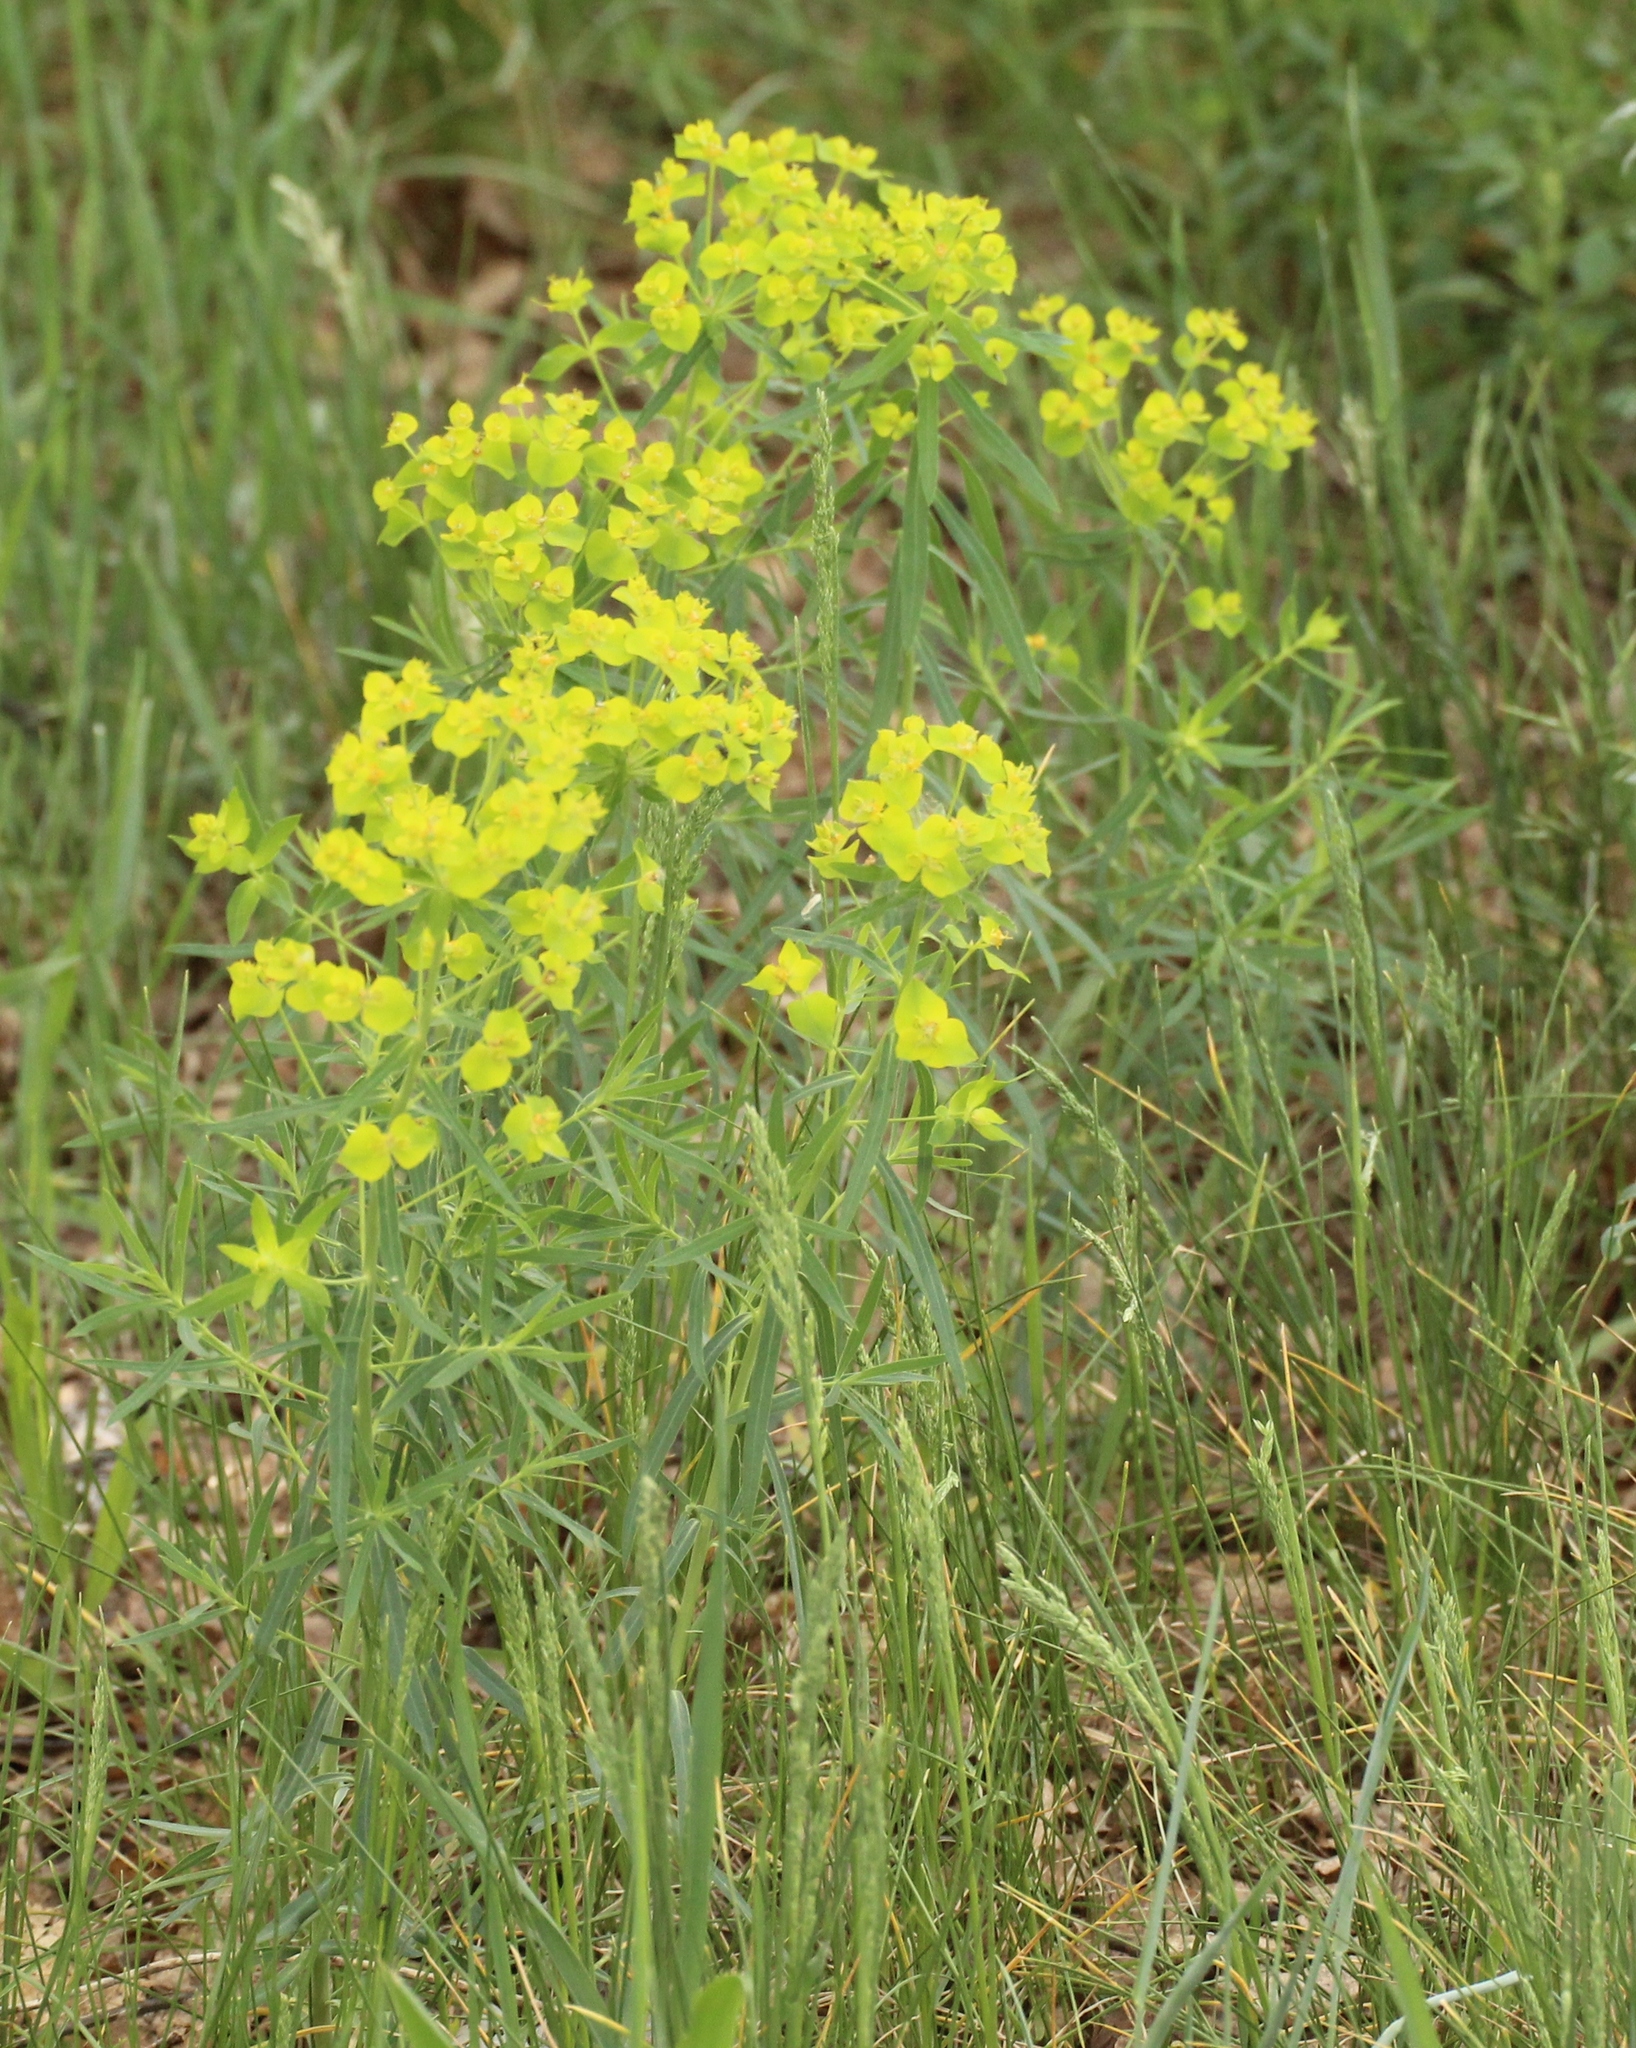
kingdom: Plantae
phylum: Tracheophyta
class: Magnoliopsida
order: Malpighiales
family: Euphorbiaceae
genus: Euphorbia
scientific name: Euphorbia virgata
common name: Leafy spurge
